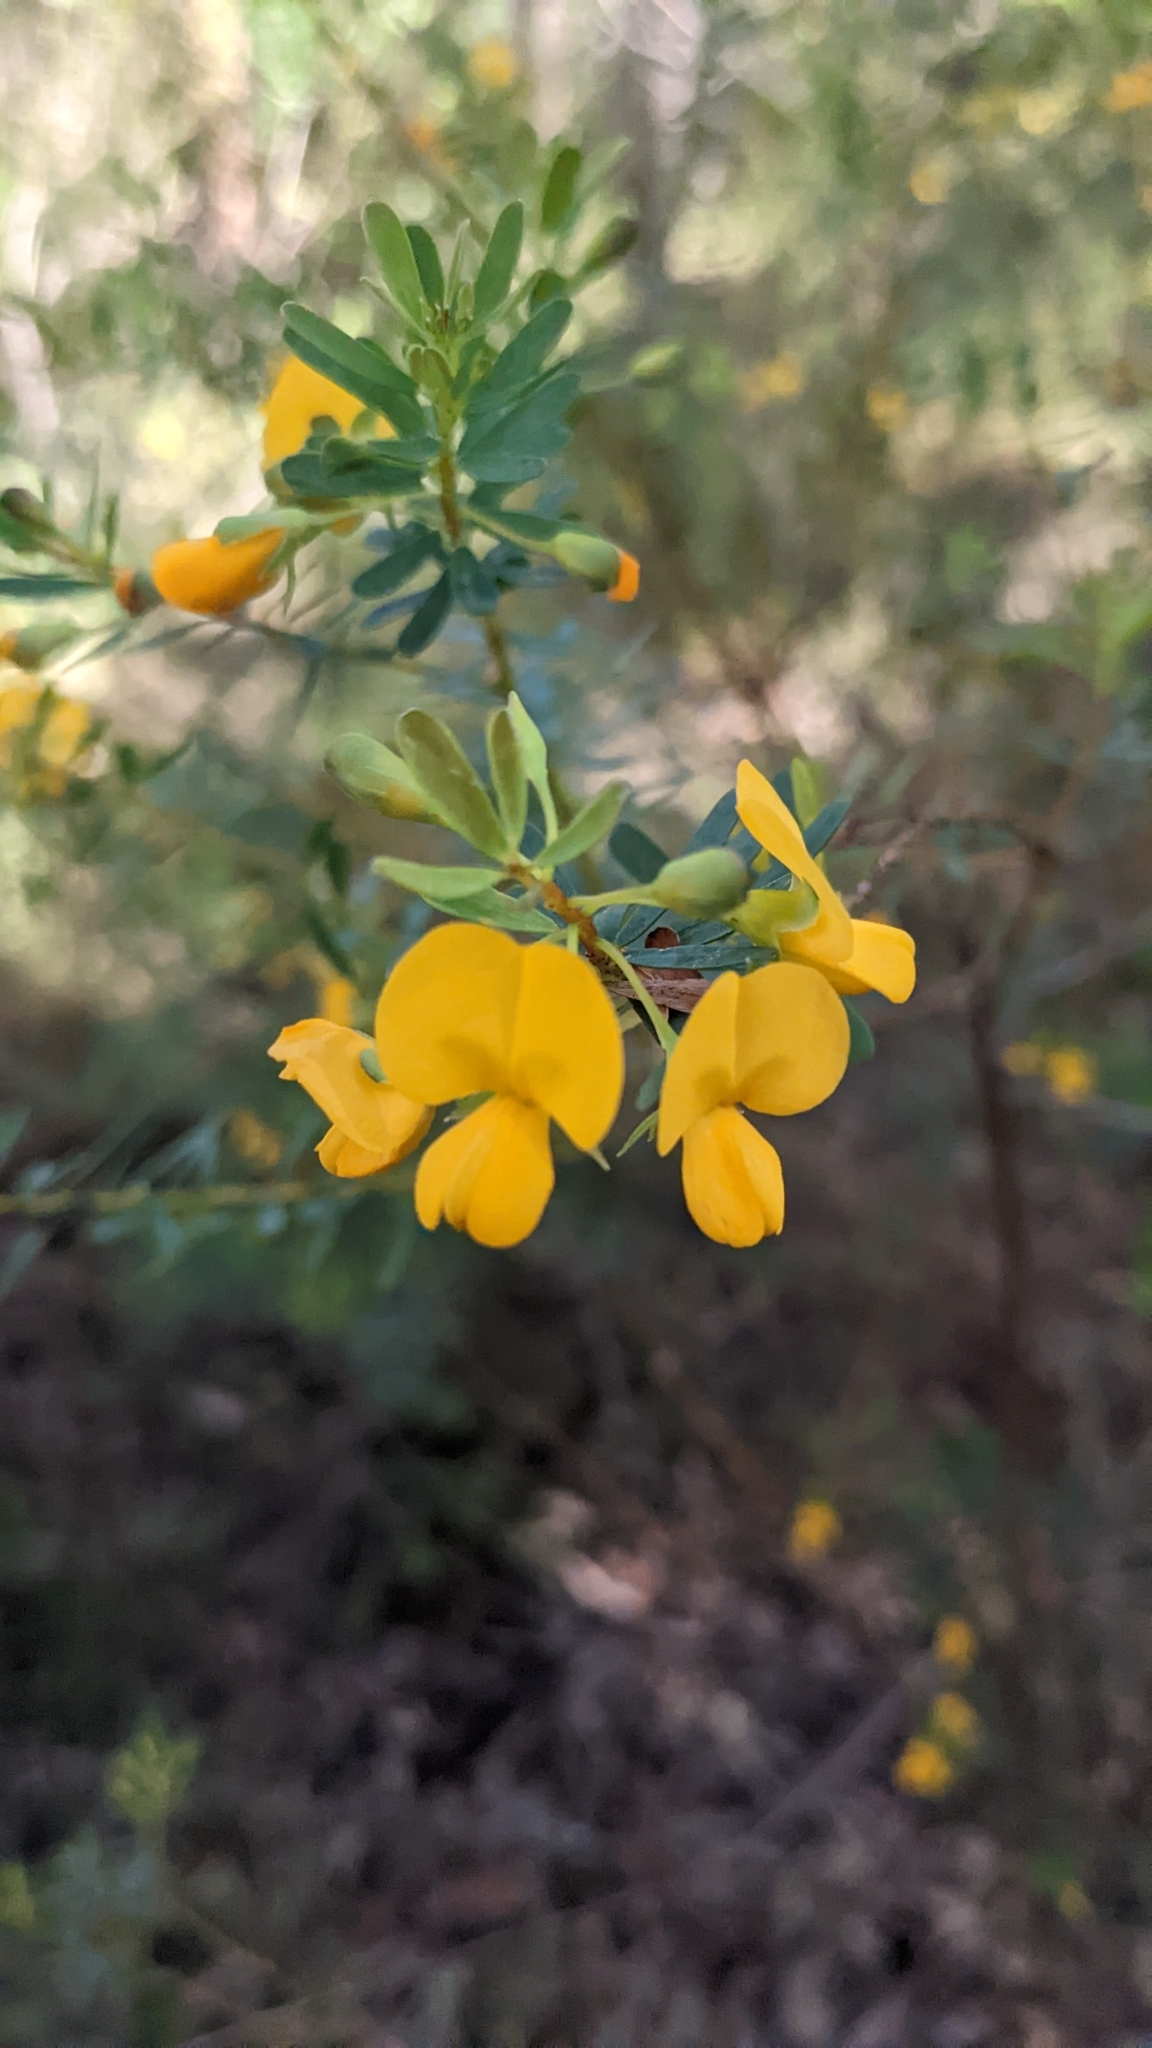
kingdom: Plantae
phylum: Tracheophyta
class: Magnoliopsida
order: Fabales
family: Fabaceae
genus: Pultenaea
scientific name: Pultenaea euchila
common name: Large-flower bush-pea
